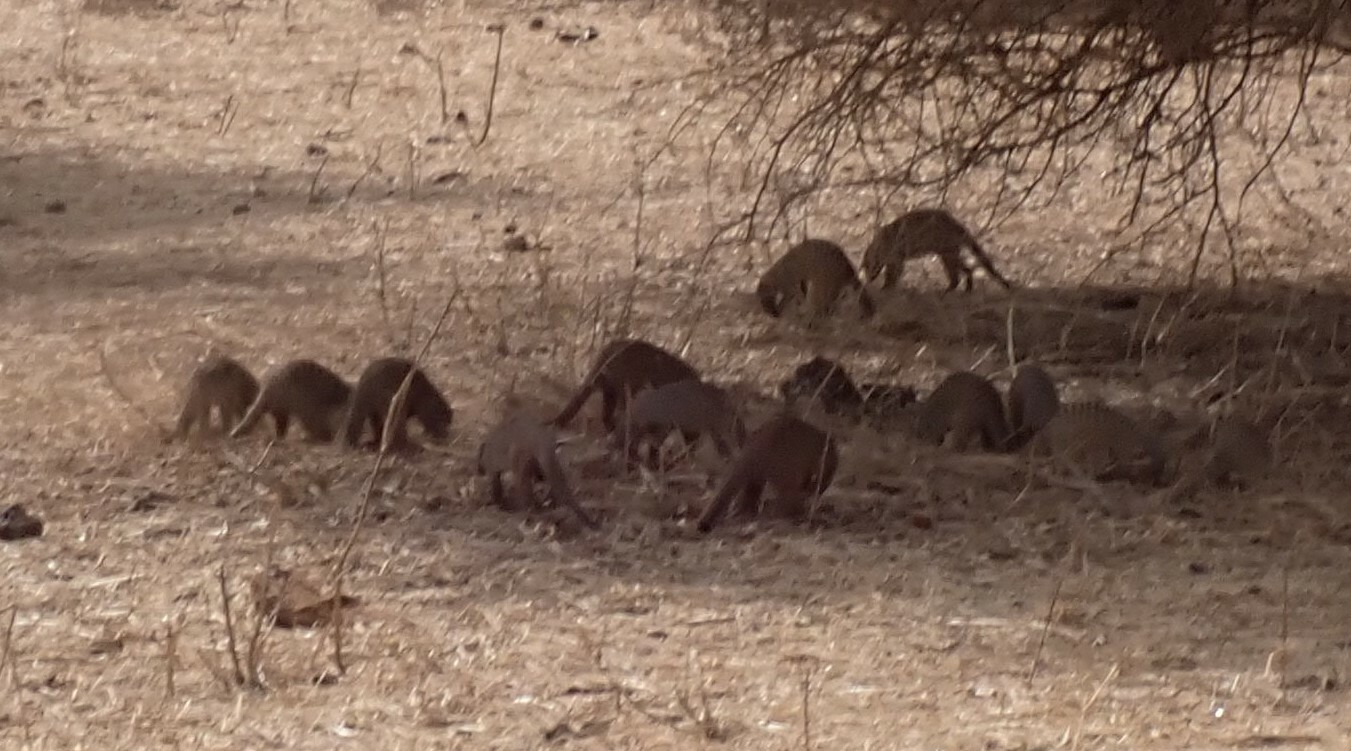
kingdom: Animalia
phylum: Chordata
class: Mammalia
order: Carnivora
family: Herpestidae
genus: Mungos
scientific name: Mungos mungo
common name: Banded mongoose
